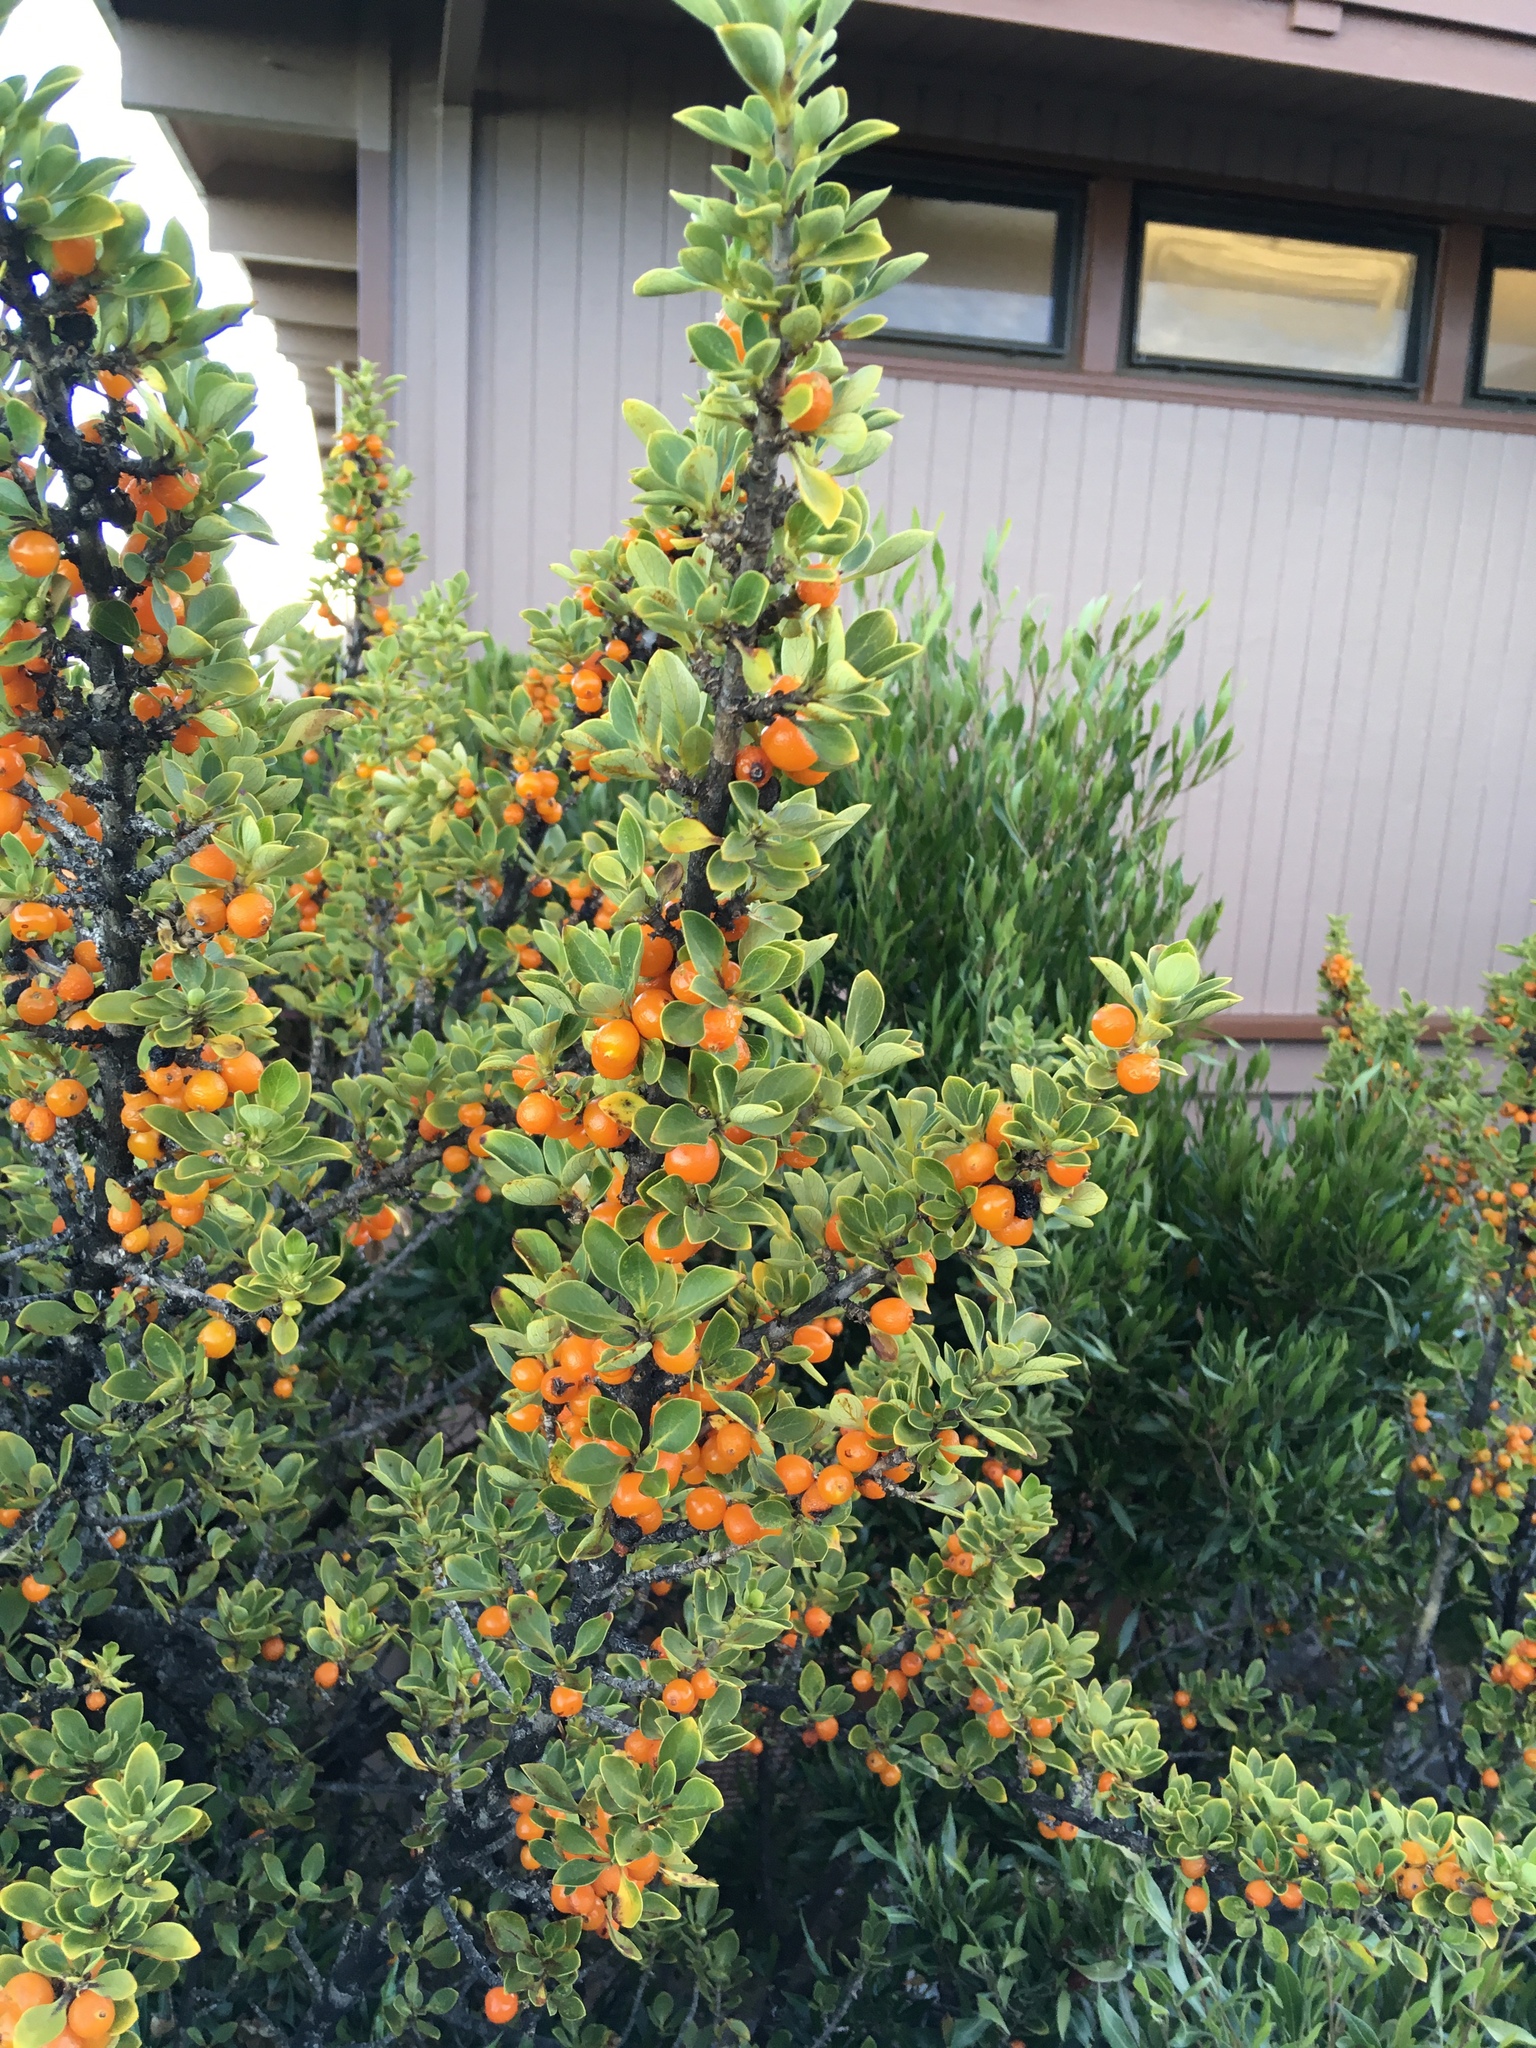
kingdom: Plantae
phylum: Tracheophyta
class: Magnoliopsida
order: Gentianales
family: Rubiaceae
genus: Coprosma
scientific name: Coprosma montana
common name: Alpine mirror plant
